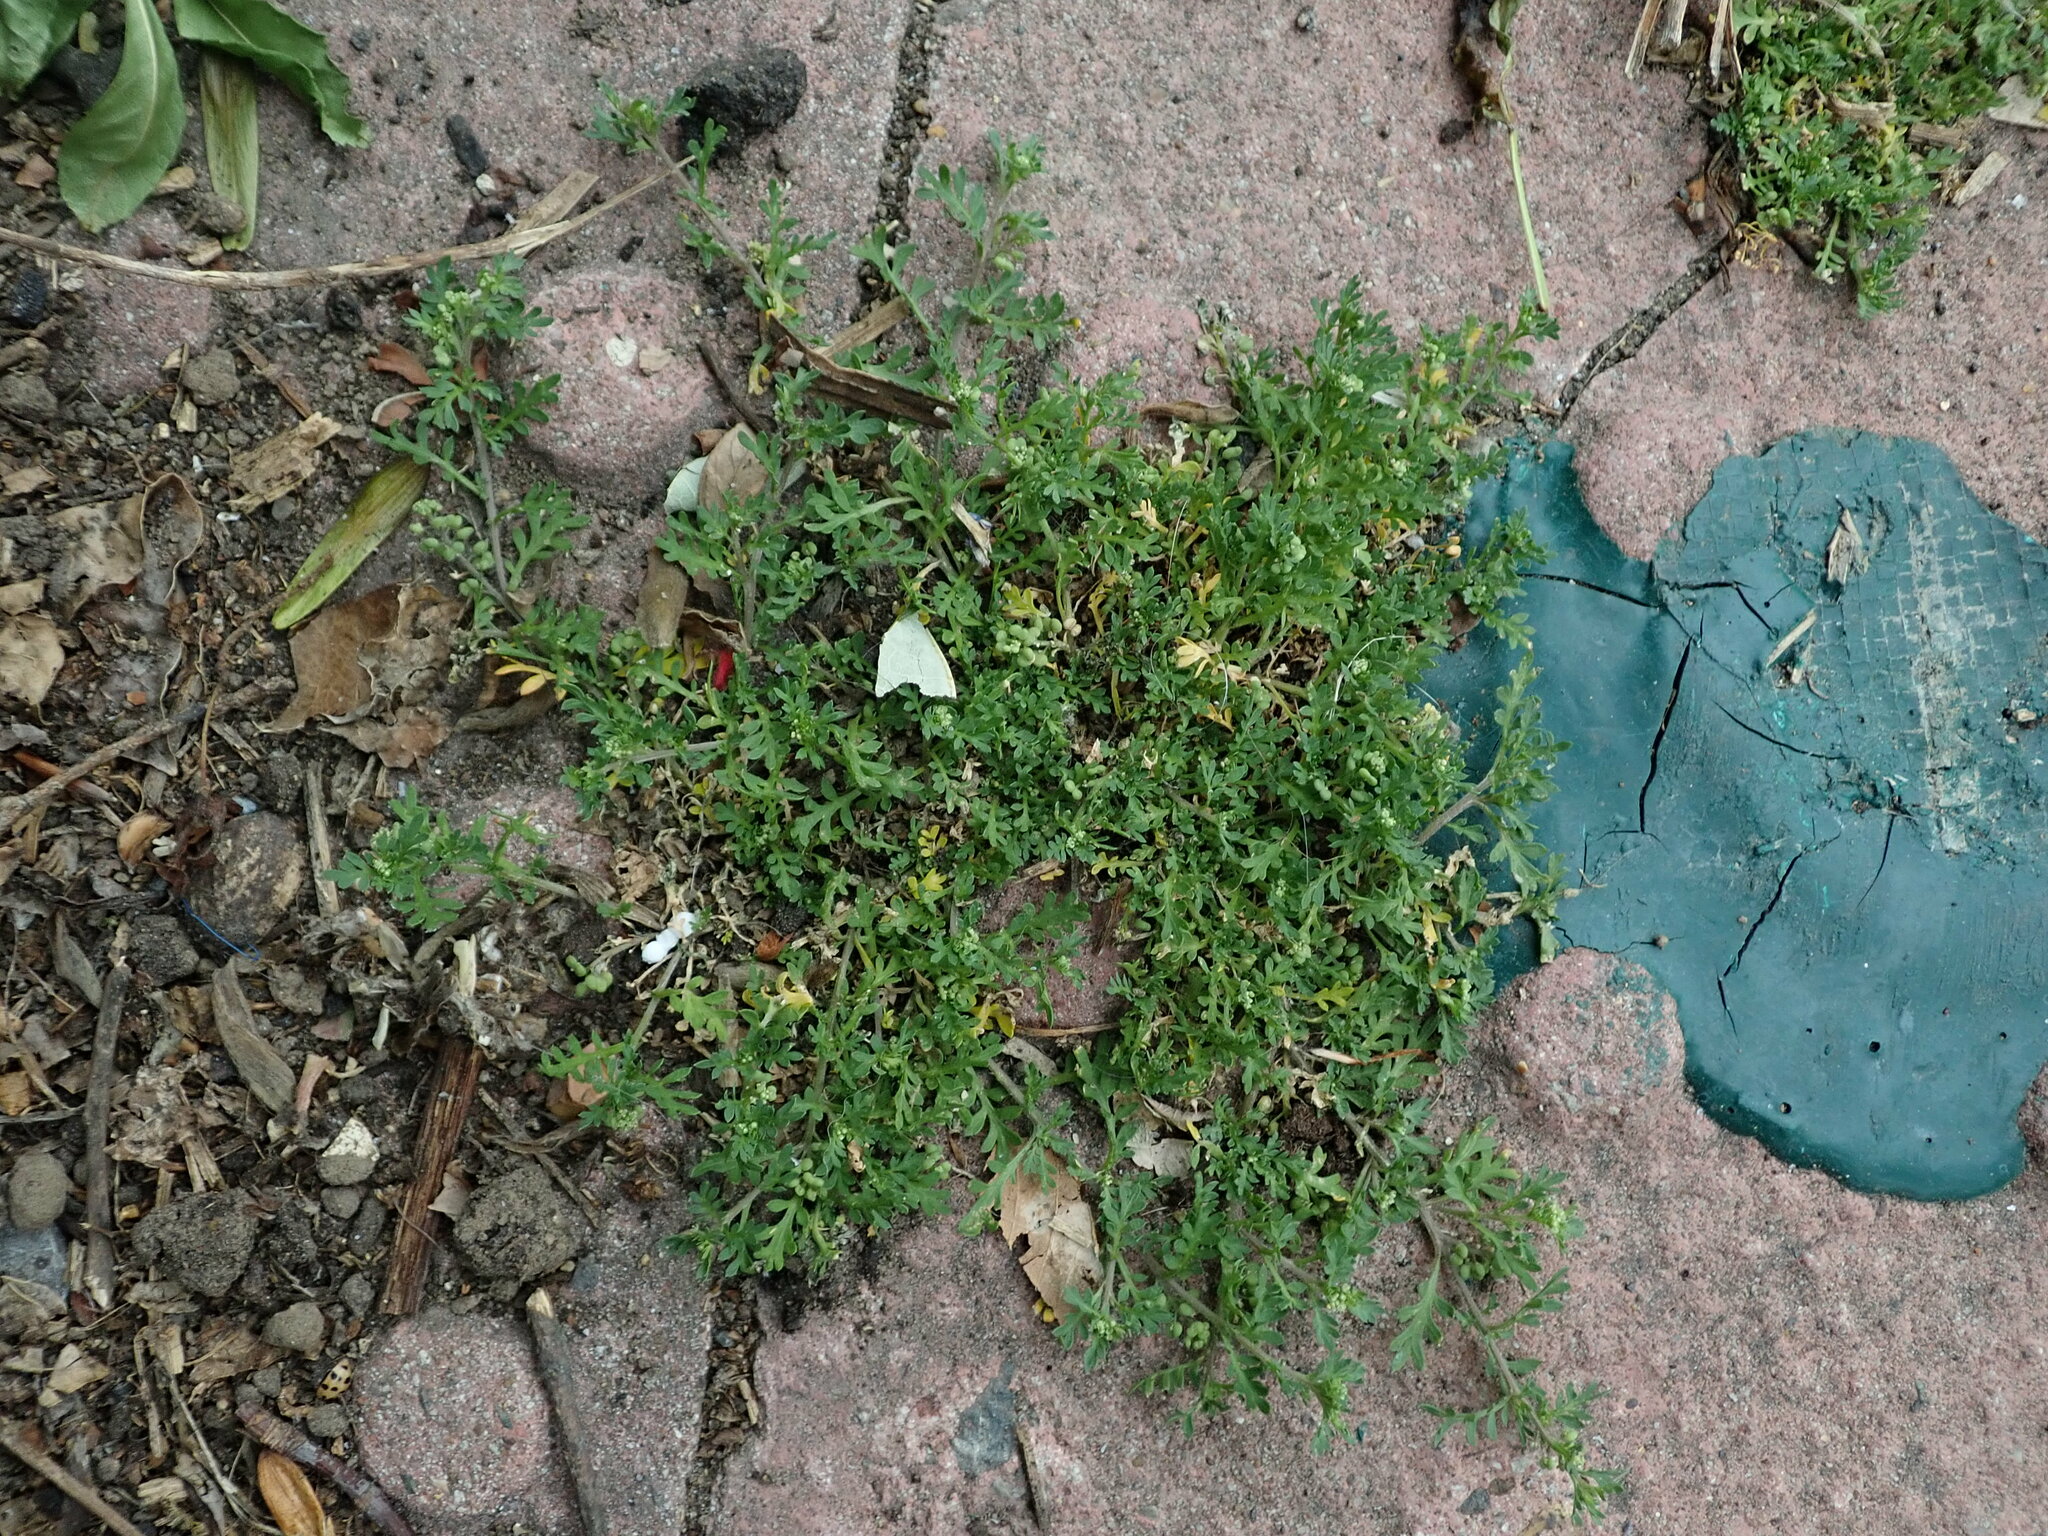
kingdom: Plantae
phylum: Tracheophyta
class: Magnoliopsida
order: Brassicales
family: Brassicaceae
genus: Lepidium
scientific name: Lepidium didymum
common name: Lesser swinecress
